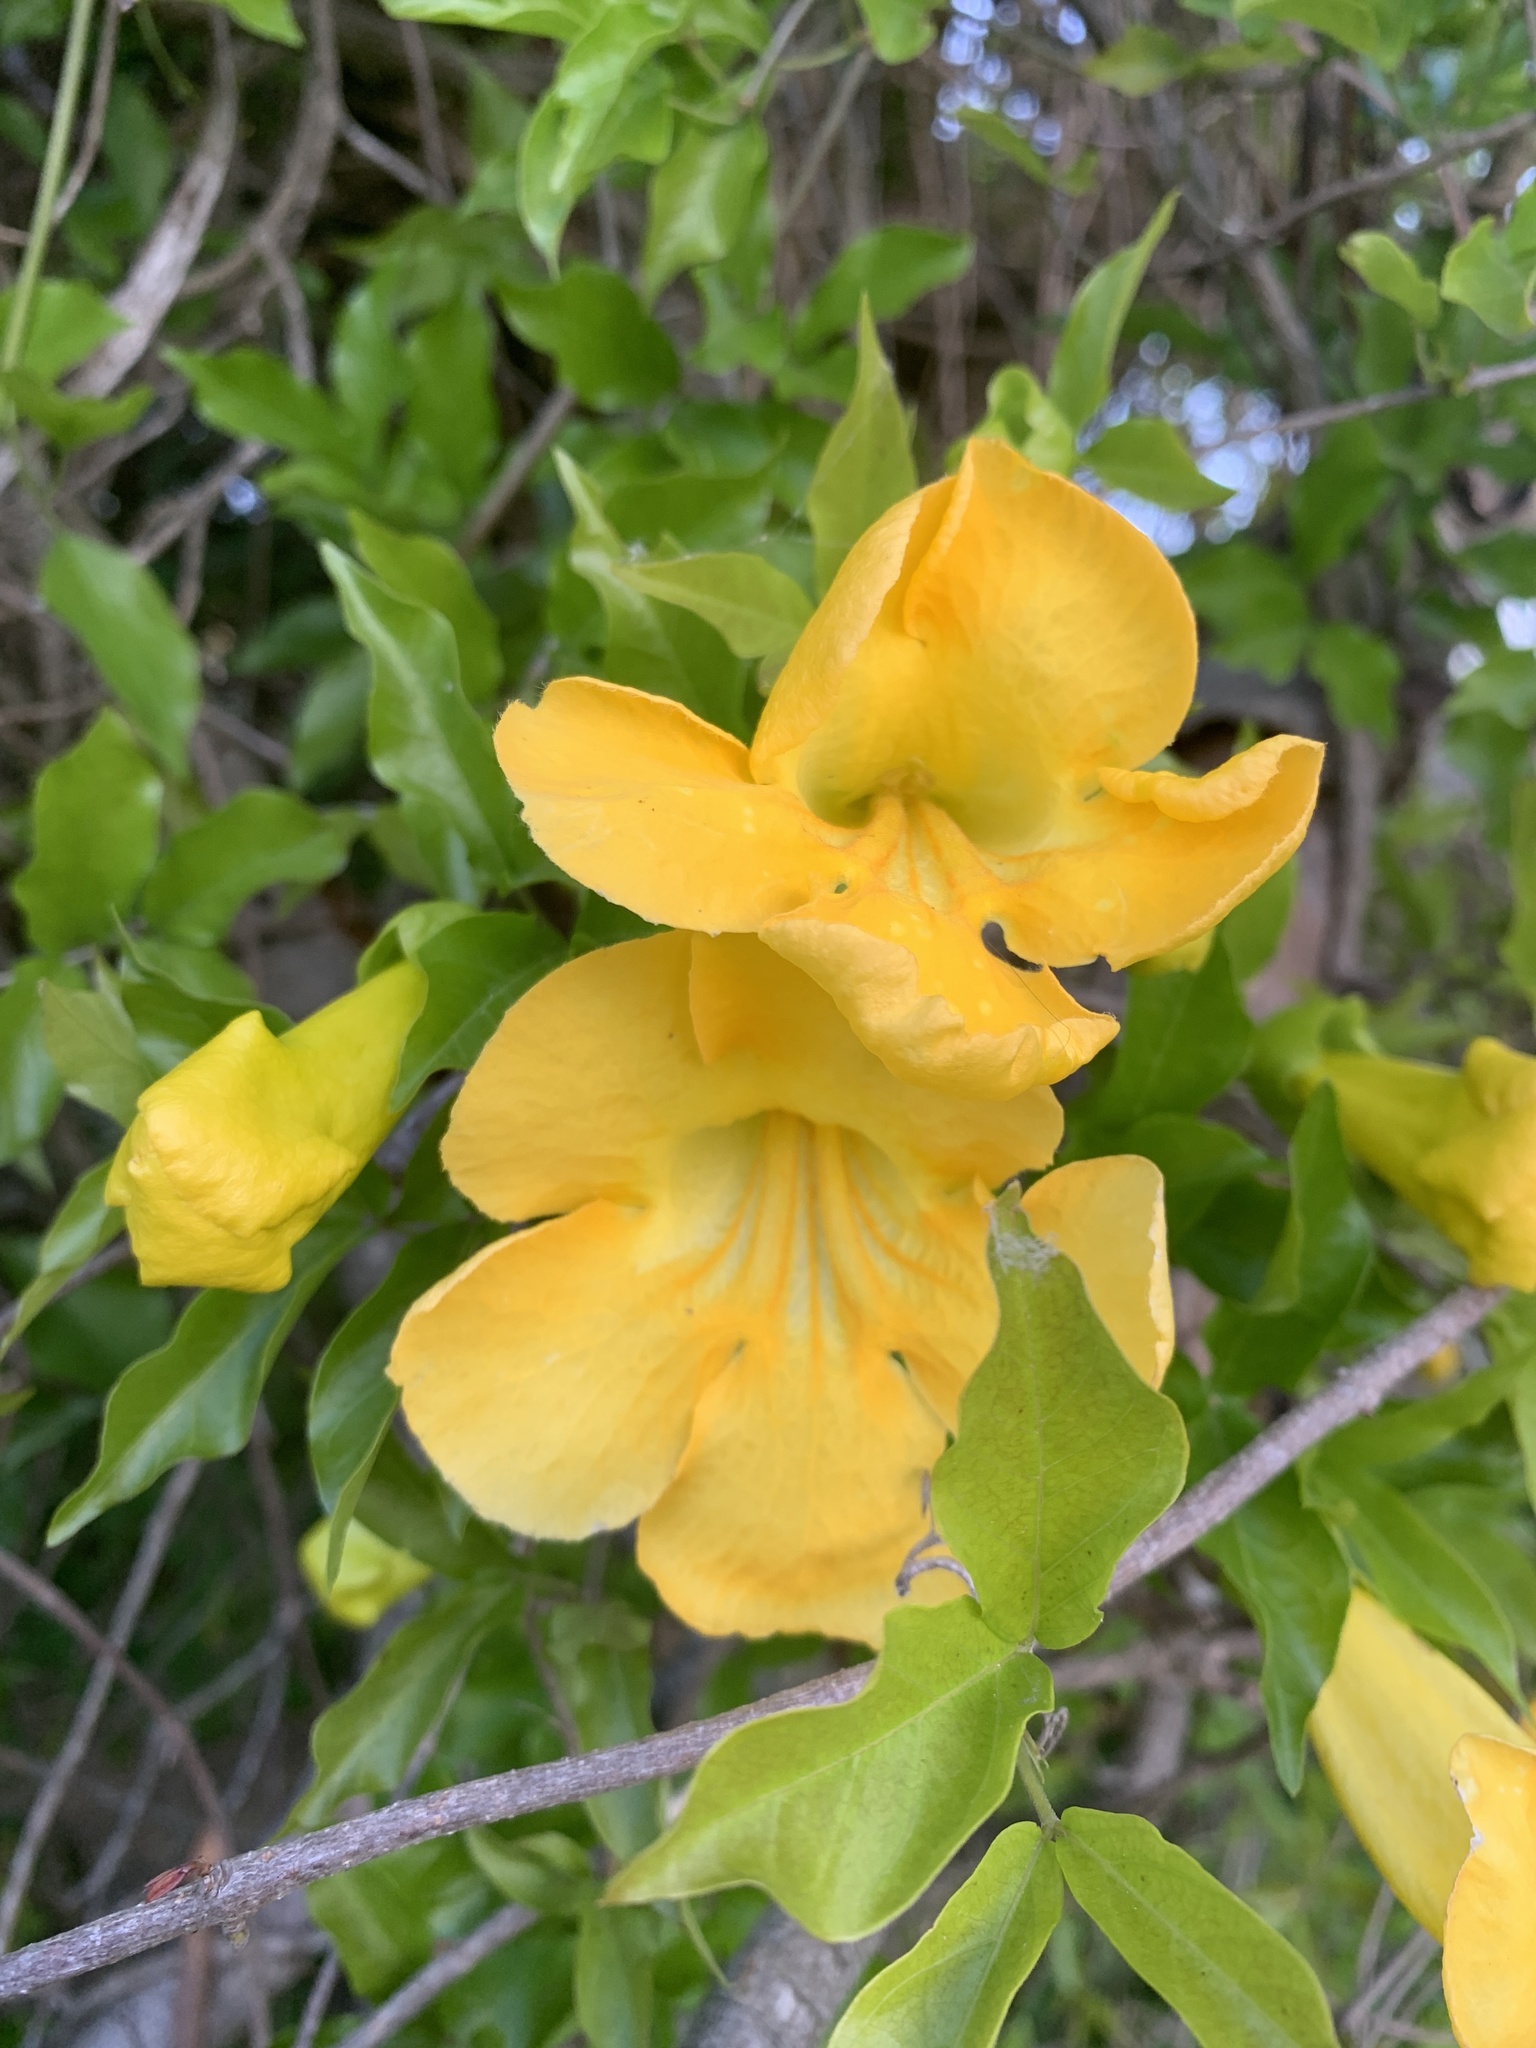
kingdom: Plantae
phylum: Tracheophyta
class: Magnoliopsida
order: Lamiales
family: Bignoniaceae
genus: Dolichandra
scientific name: Dolichandra unguis-cati
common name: Catclaw vine
